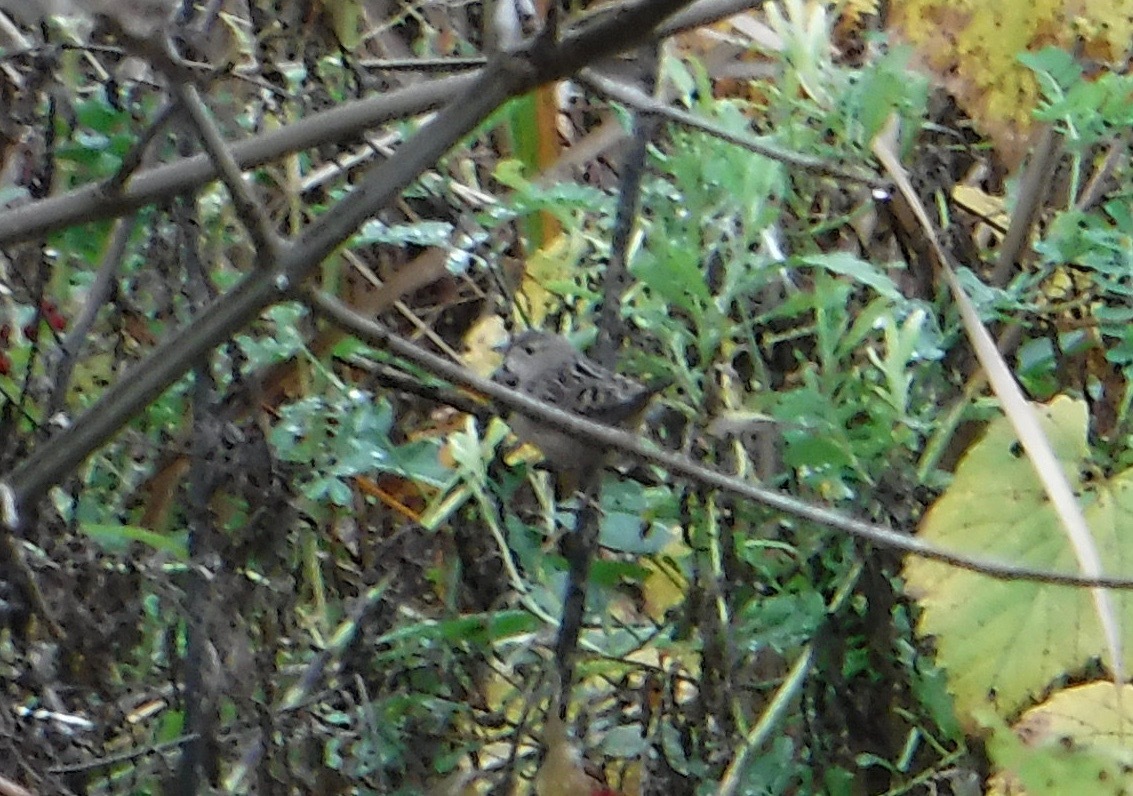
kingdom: Animalia
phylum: Chordata
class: Aves
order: Passeriformes
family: Troglodytidae
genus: Cistothorus
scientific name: Cistothorus platensis
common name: Sedge wren
